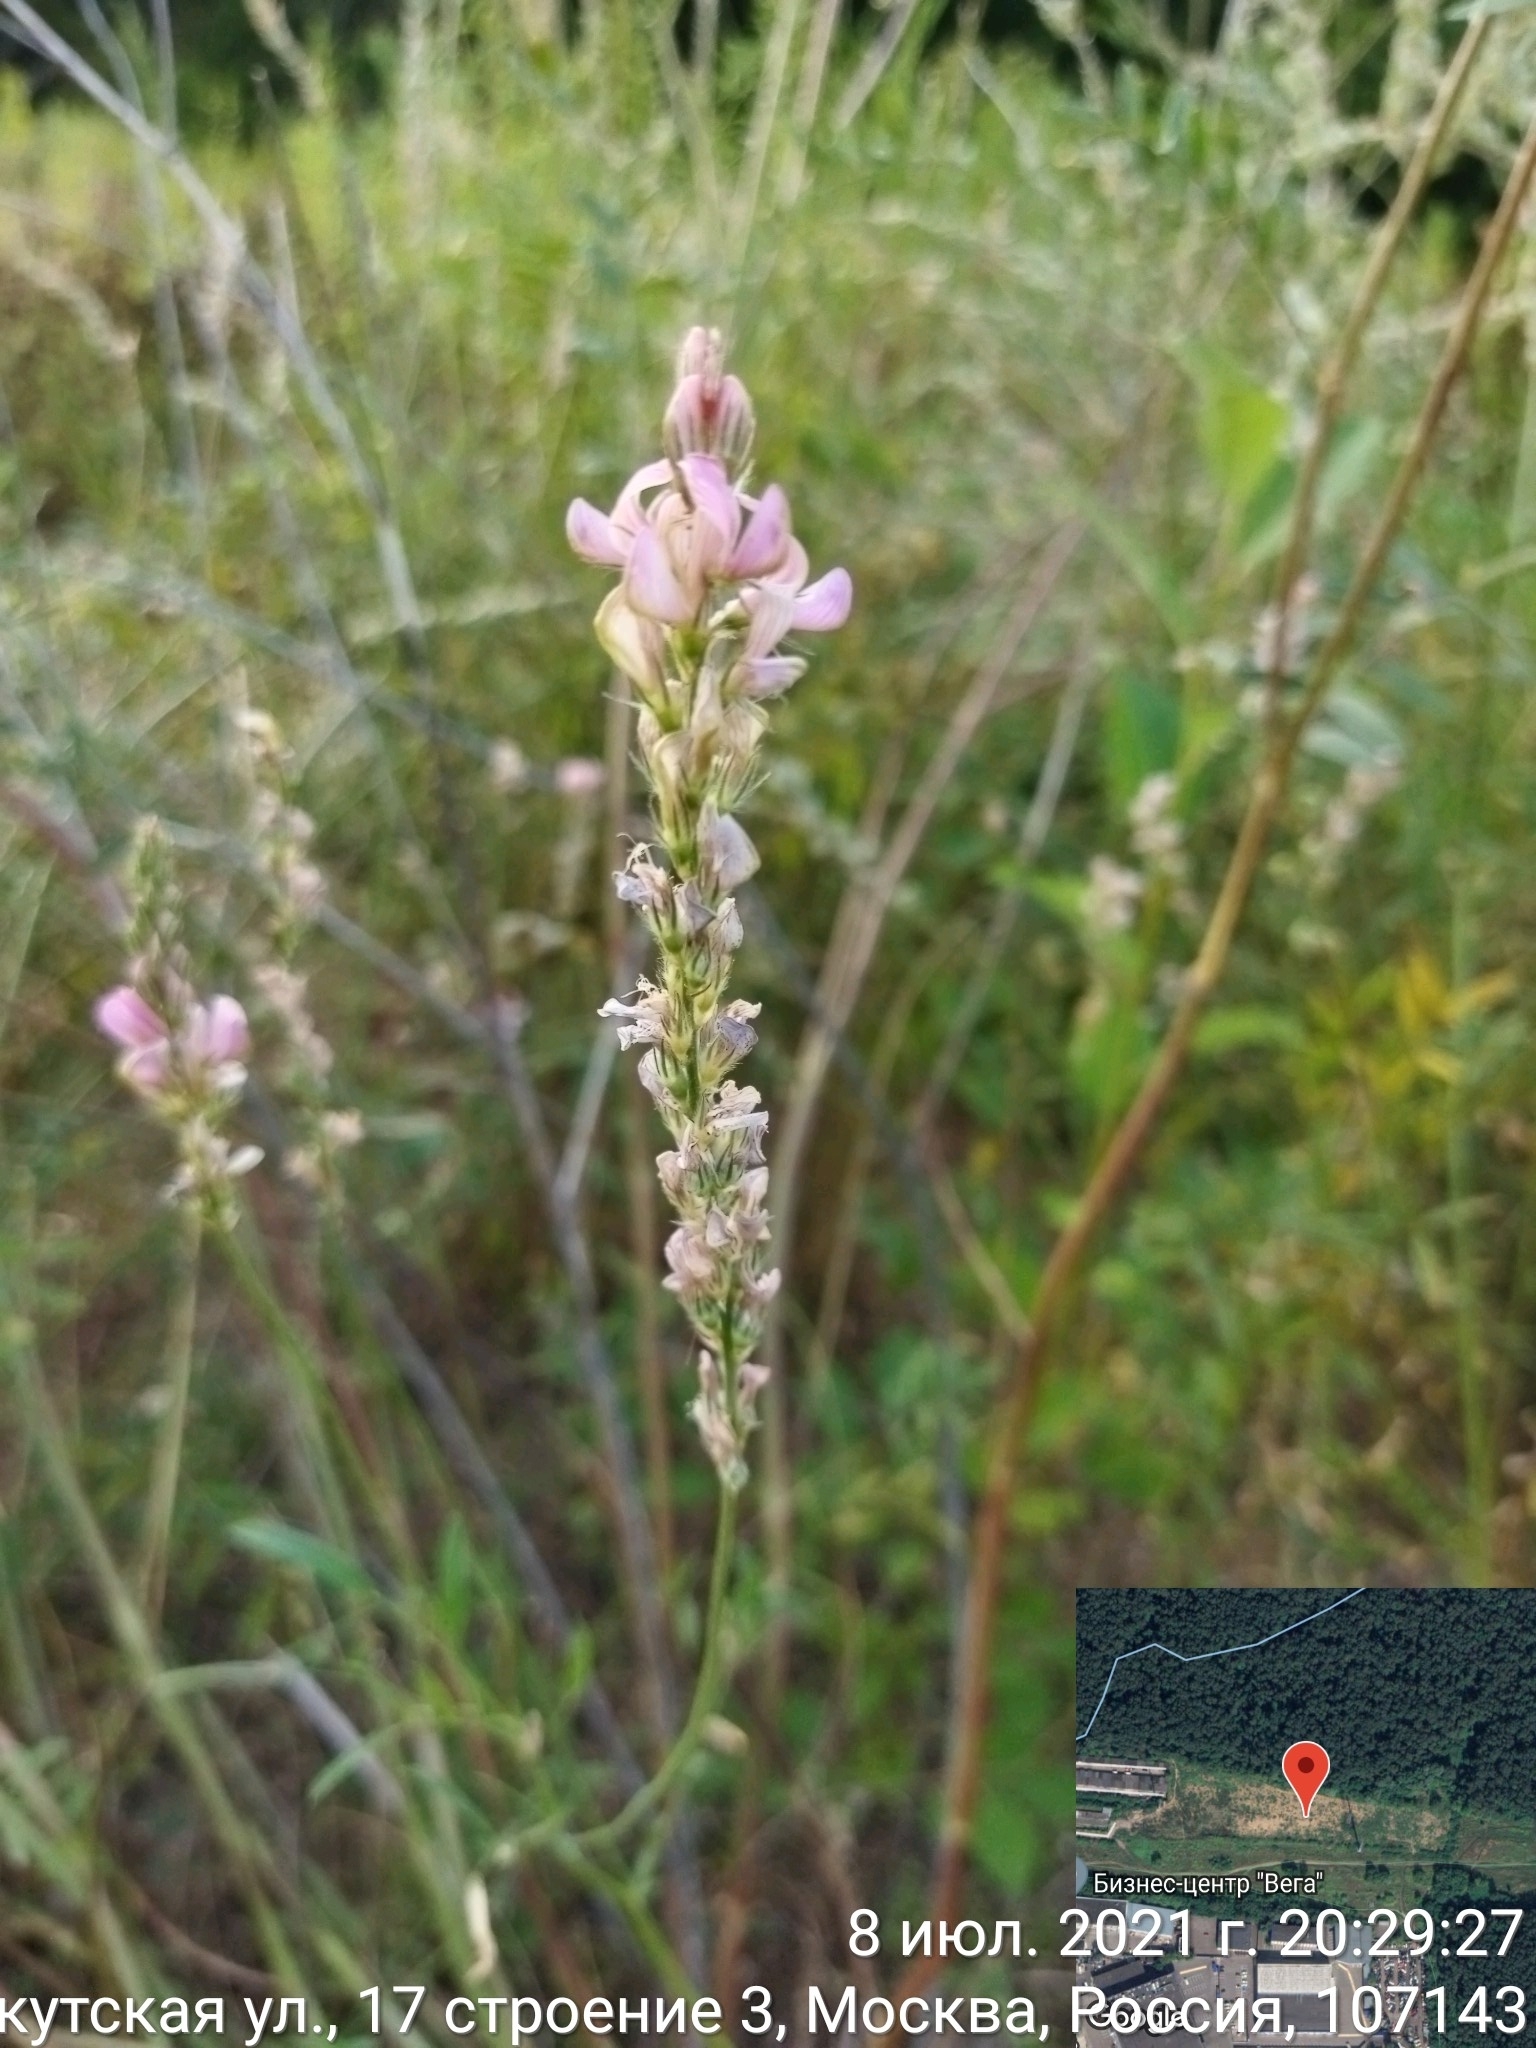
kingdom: Plantae
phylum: Tracheophyta
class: Magnoliopsida
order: Fabales
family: Fabaceae
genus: Onobrychis
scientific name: Onobrychis viciifolia
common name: Sainfoin
